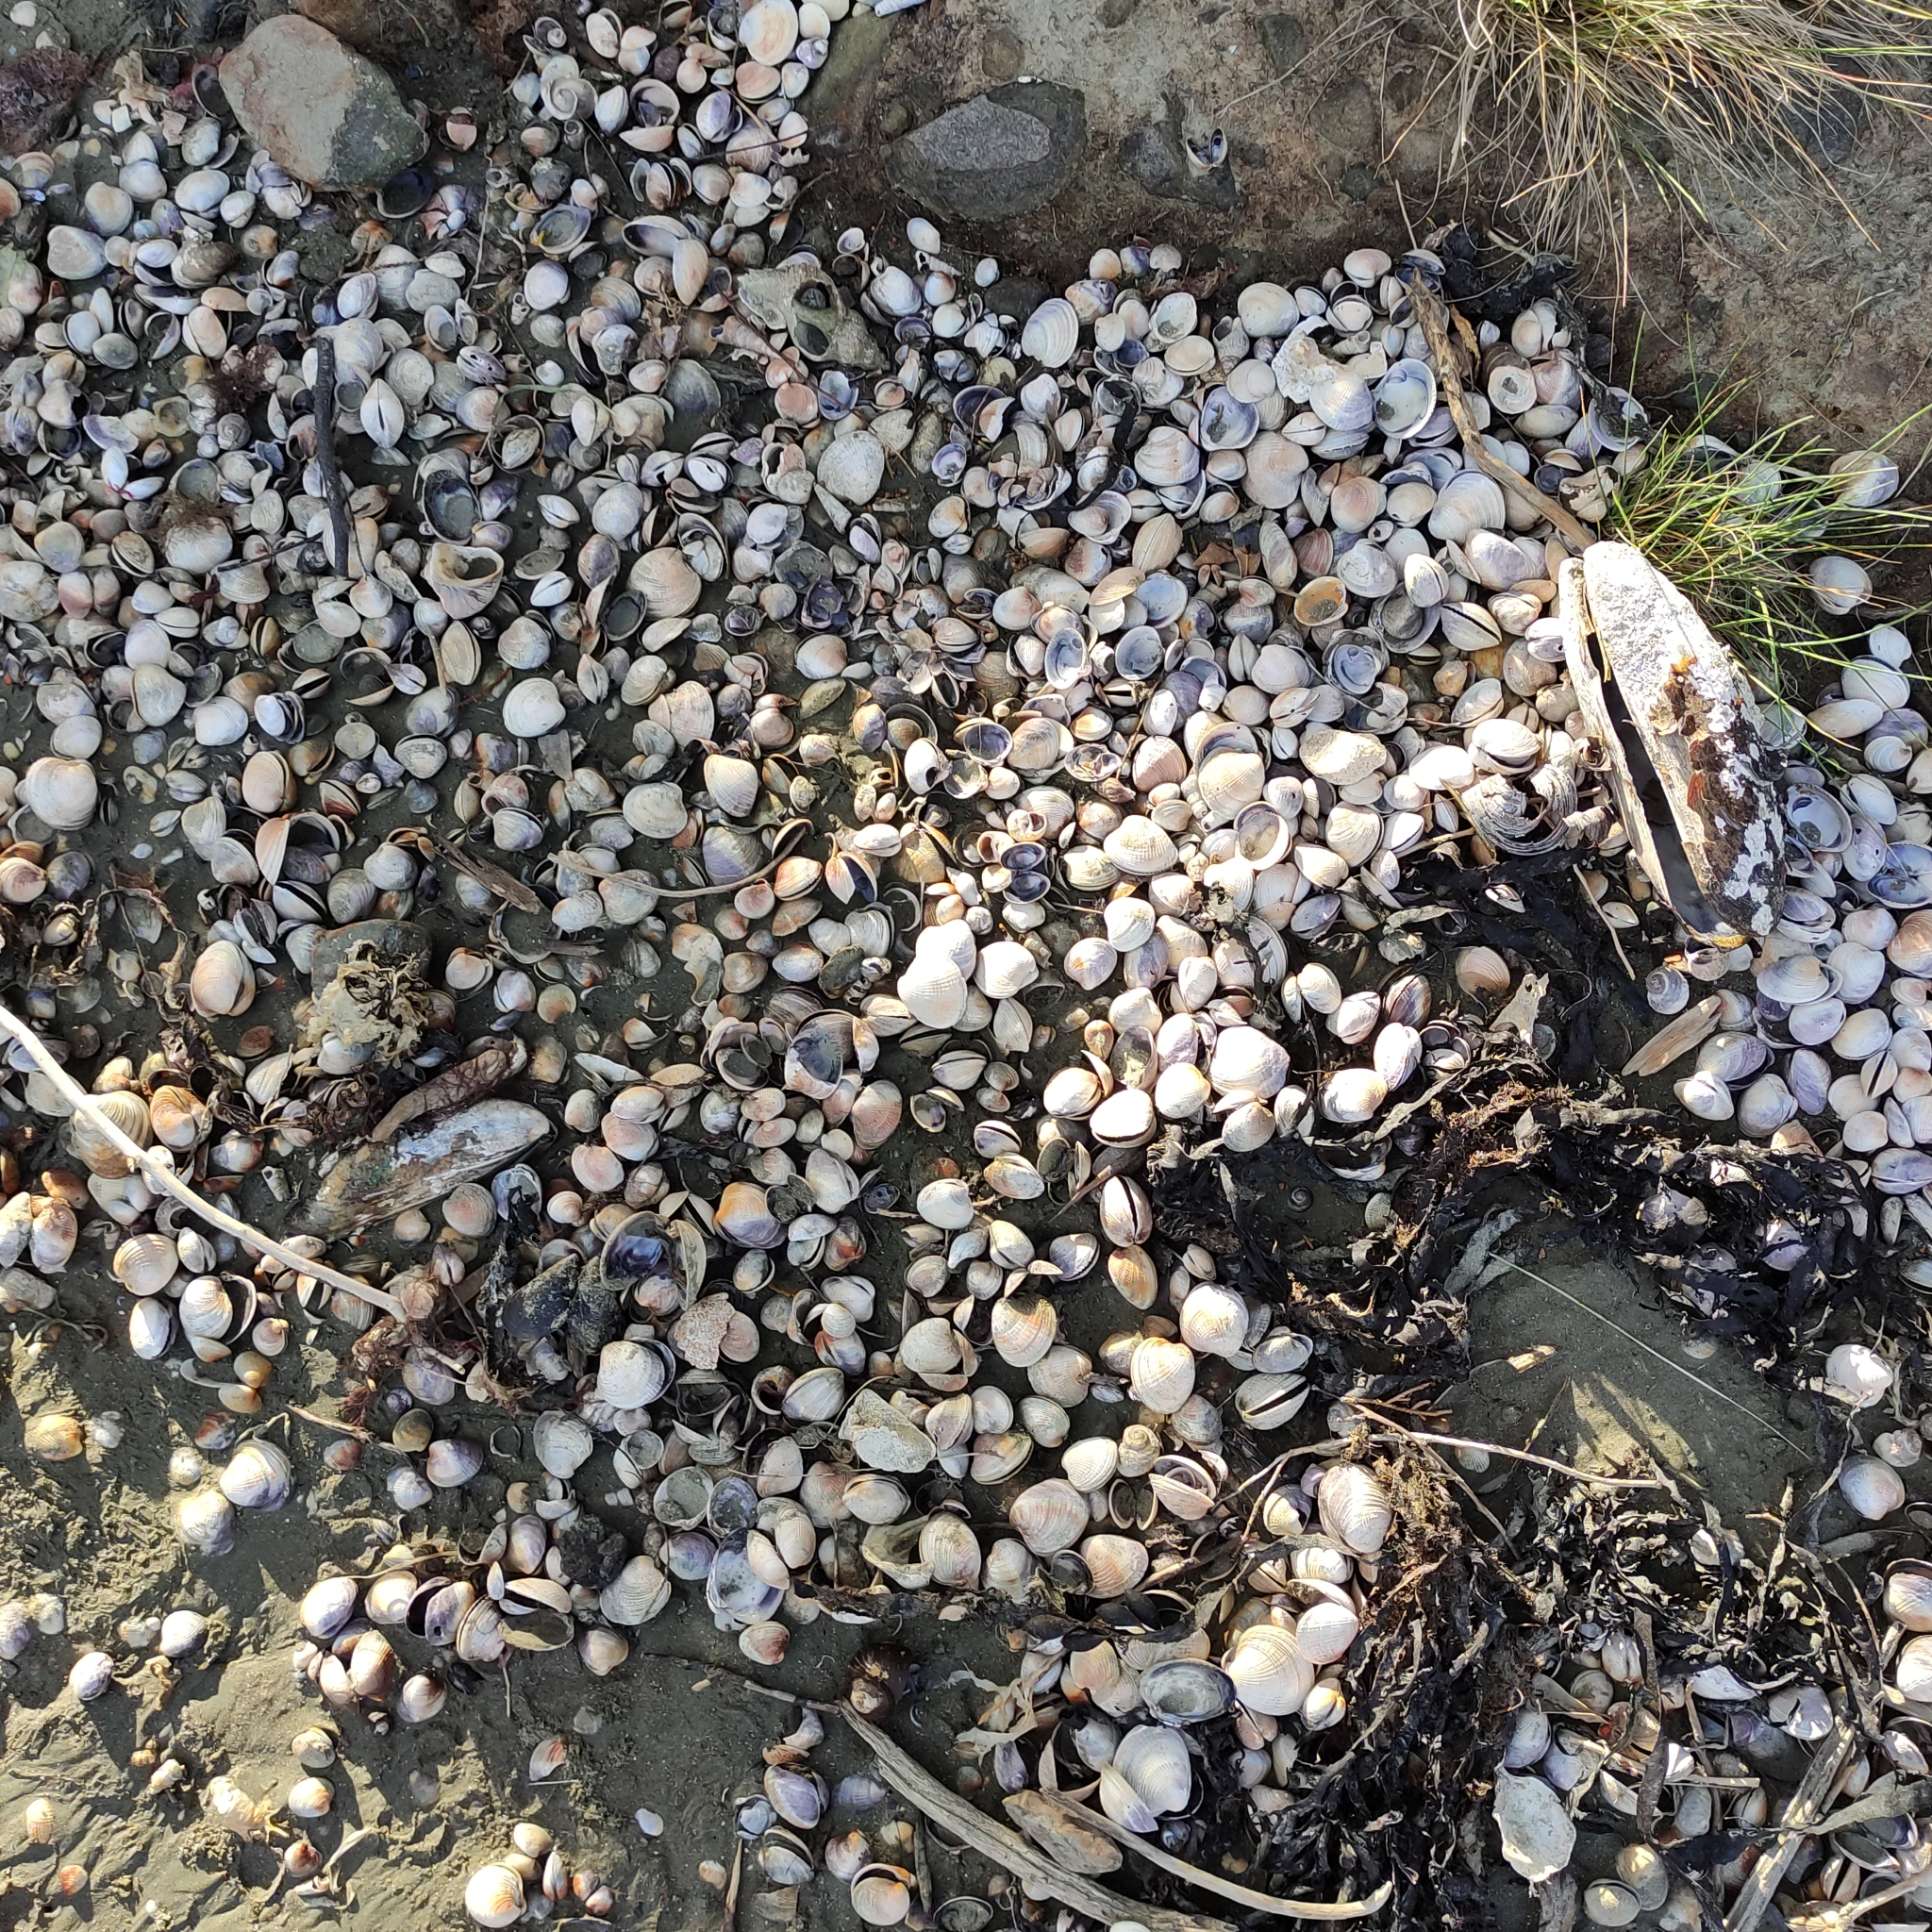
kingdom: Animalia
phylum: Mollusca
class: Bivalvia
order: Venerida
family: Veneridae
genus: Austrovenus
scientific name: Austrovenus stutchburyi
